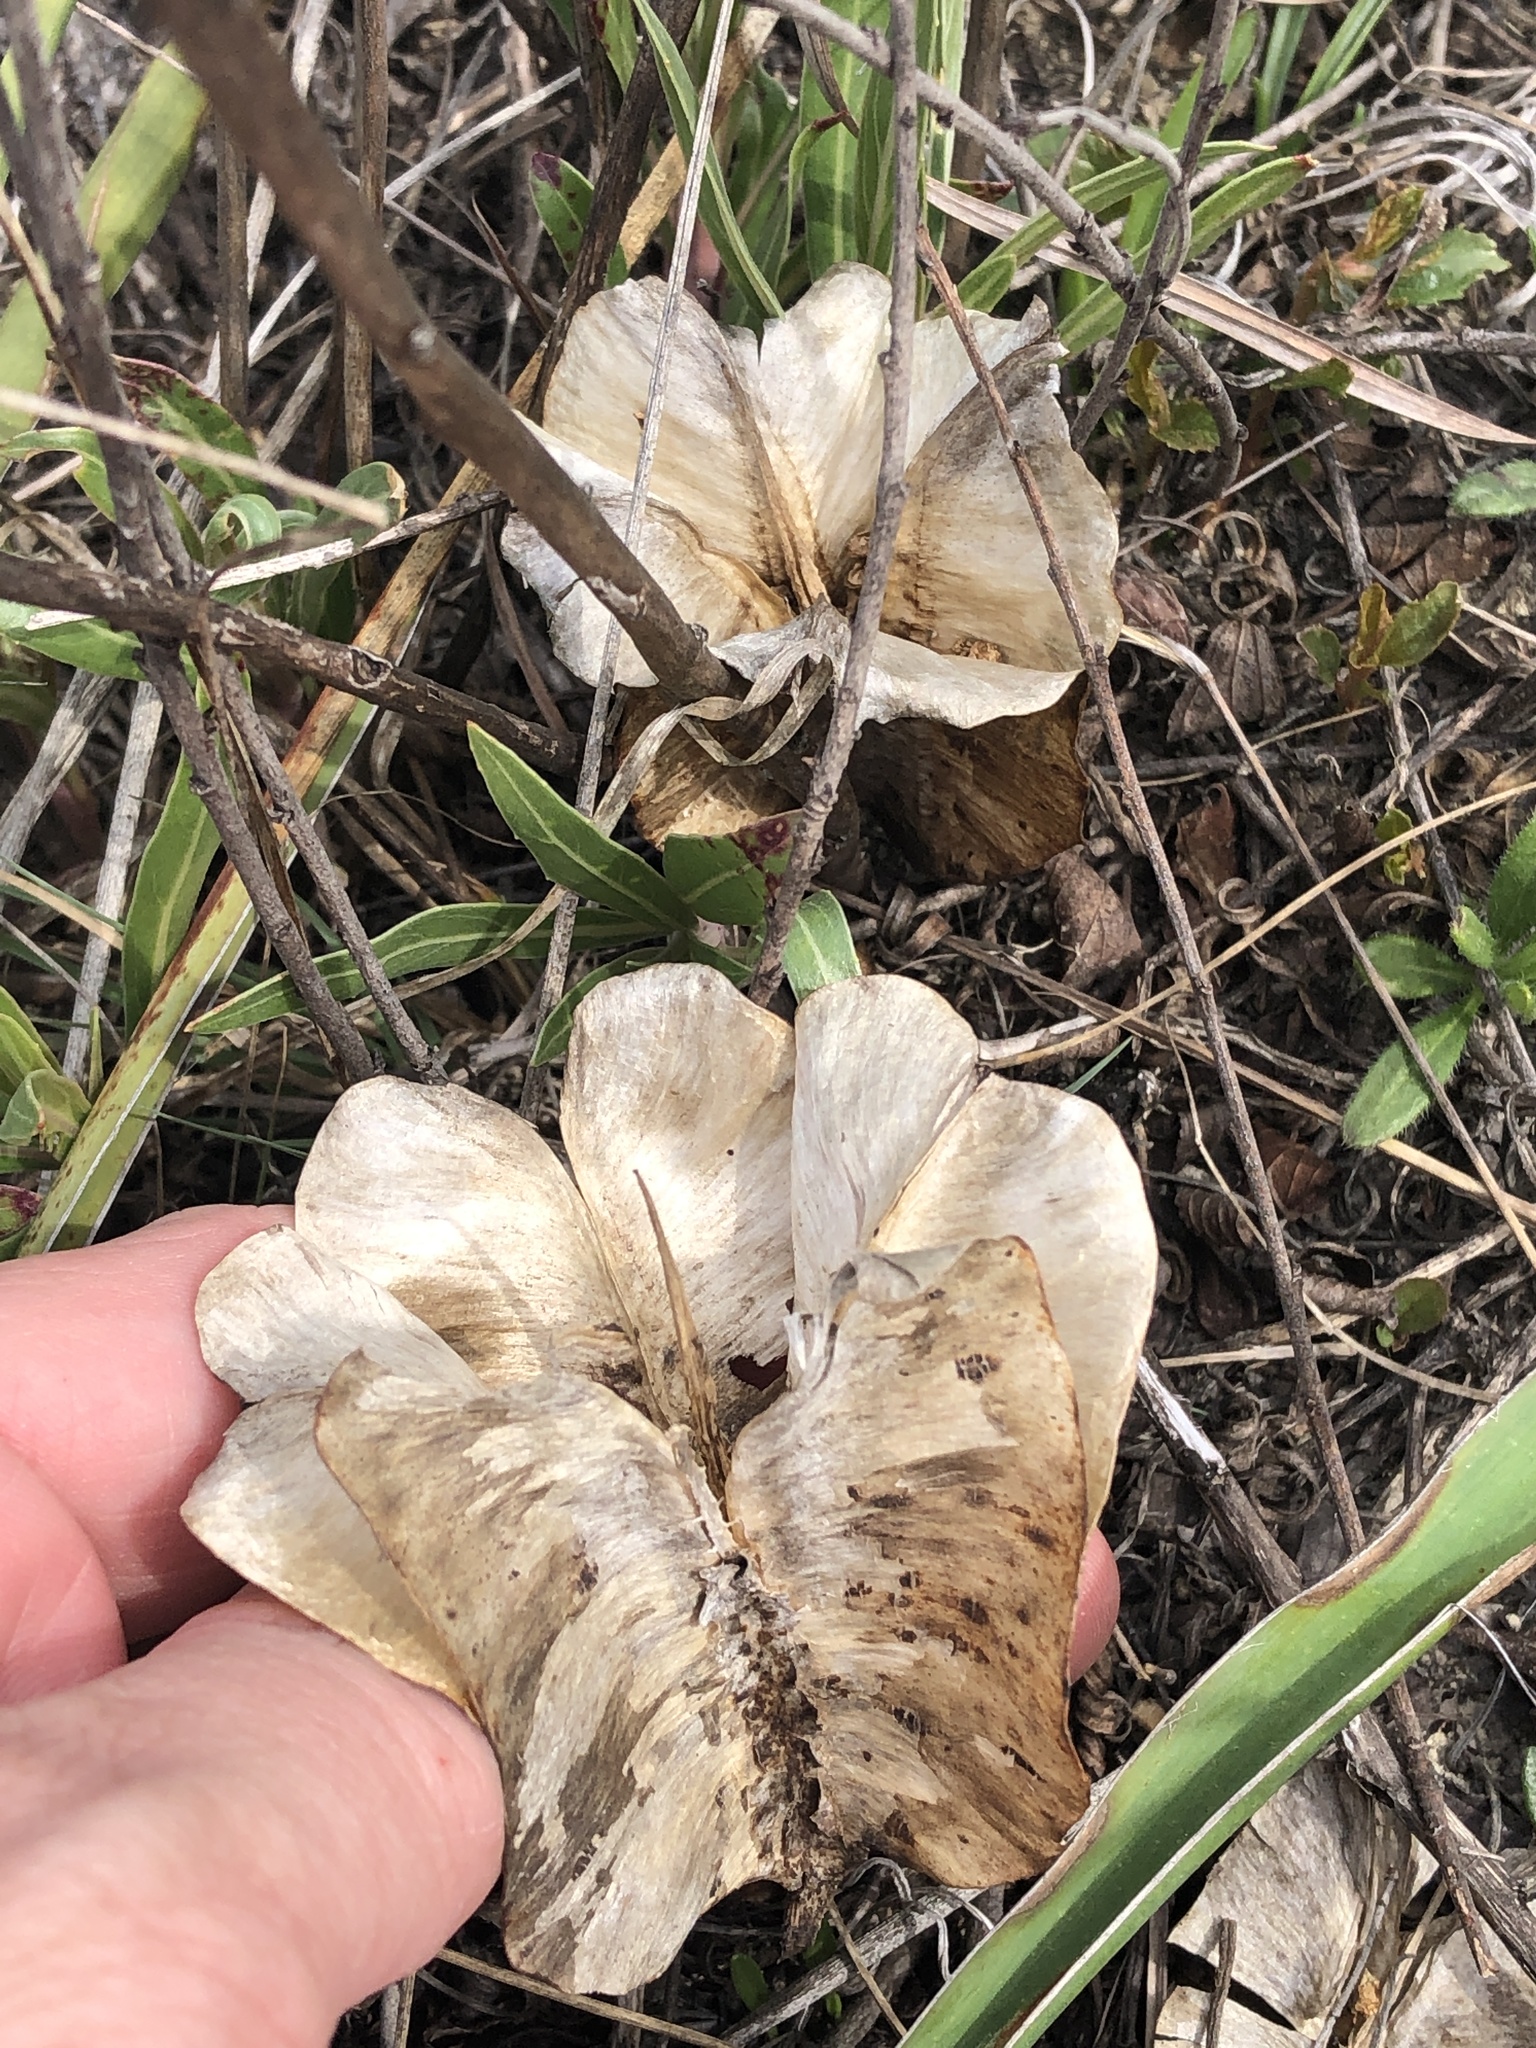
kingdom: Plantae
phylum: Tracheophyta
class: Magnoliopsida
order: Myrtales
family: Onagraceae
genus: Oenothera
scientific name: Oenothera macrocarpa
